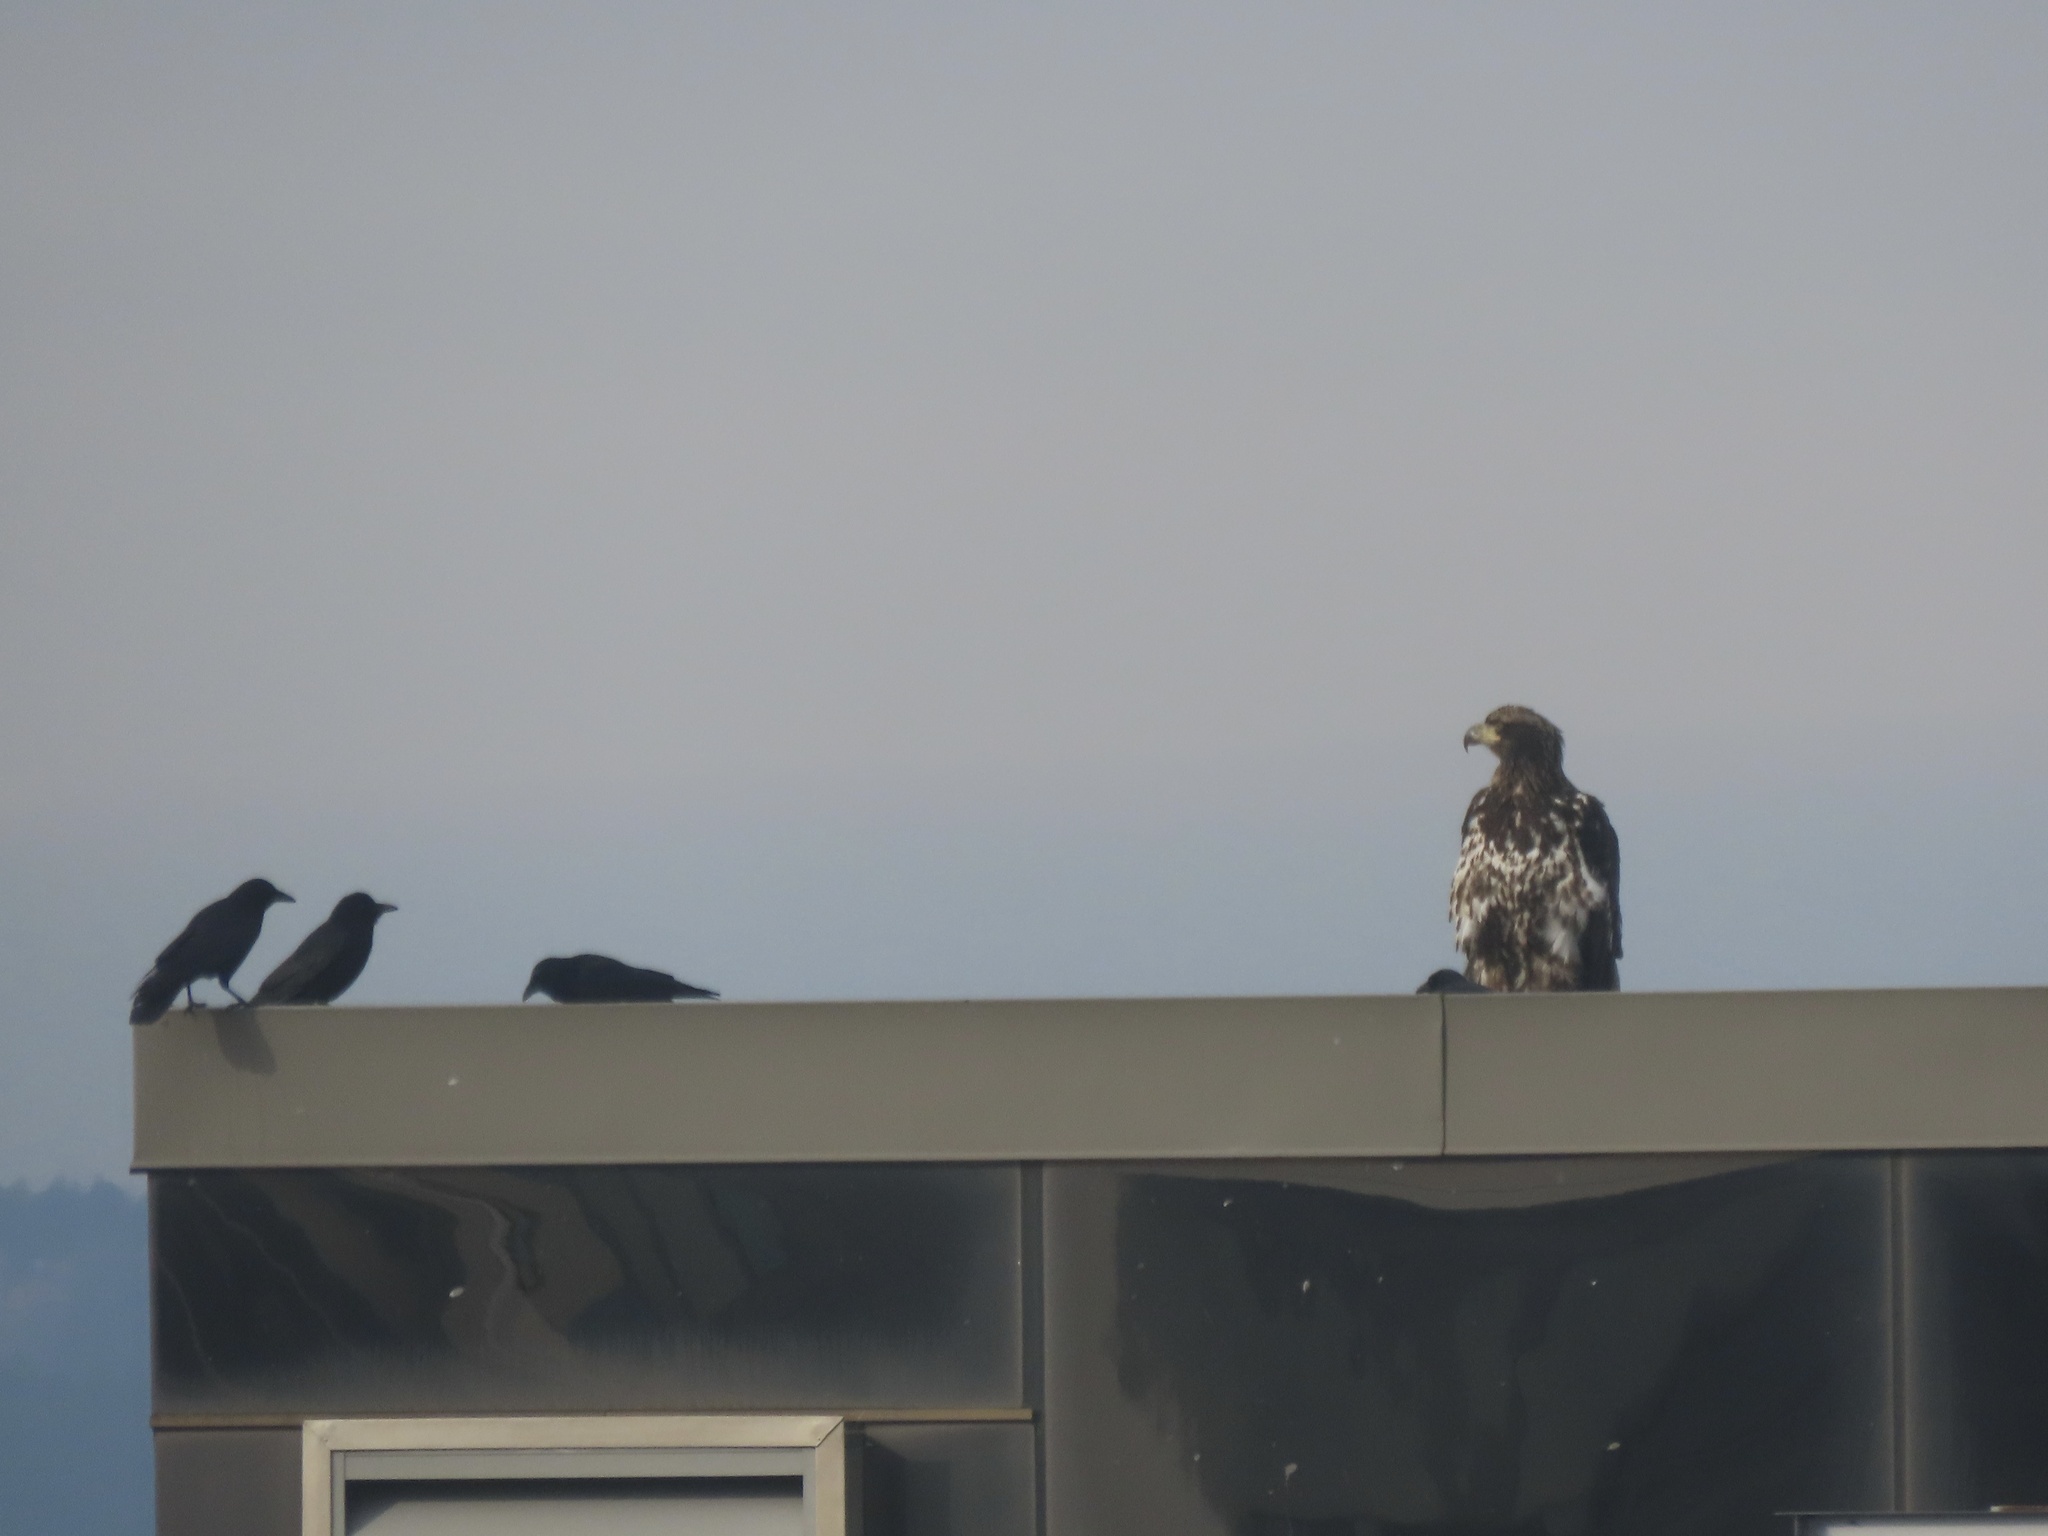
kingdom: Animalia
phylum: Chordata
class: Aves
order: Passeriformes
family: Corvidae
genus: Corvus
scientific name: Corvus brachyrhynchos
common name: American crow
